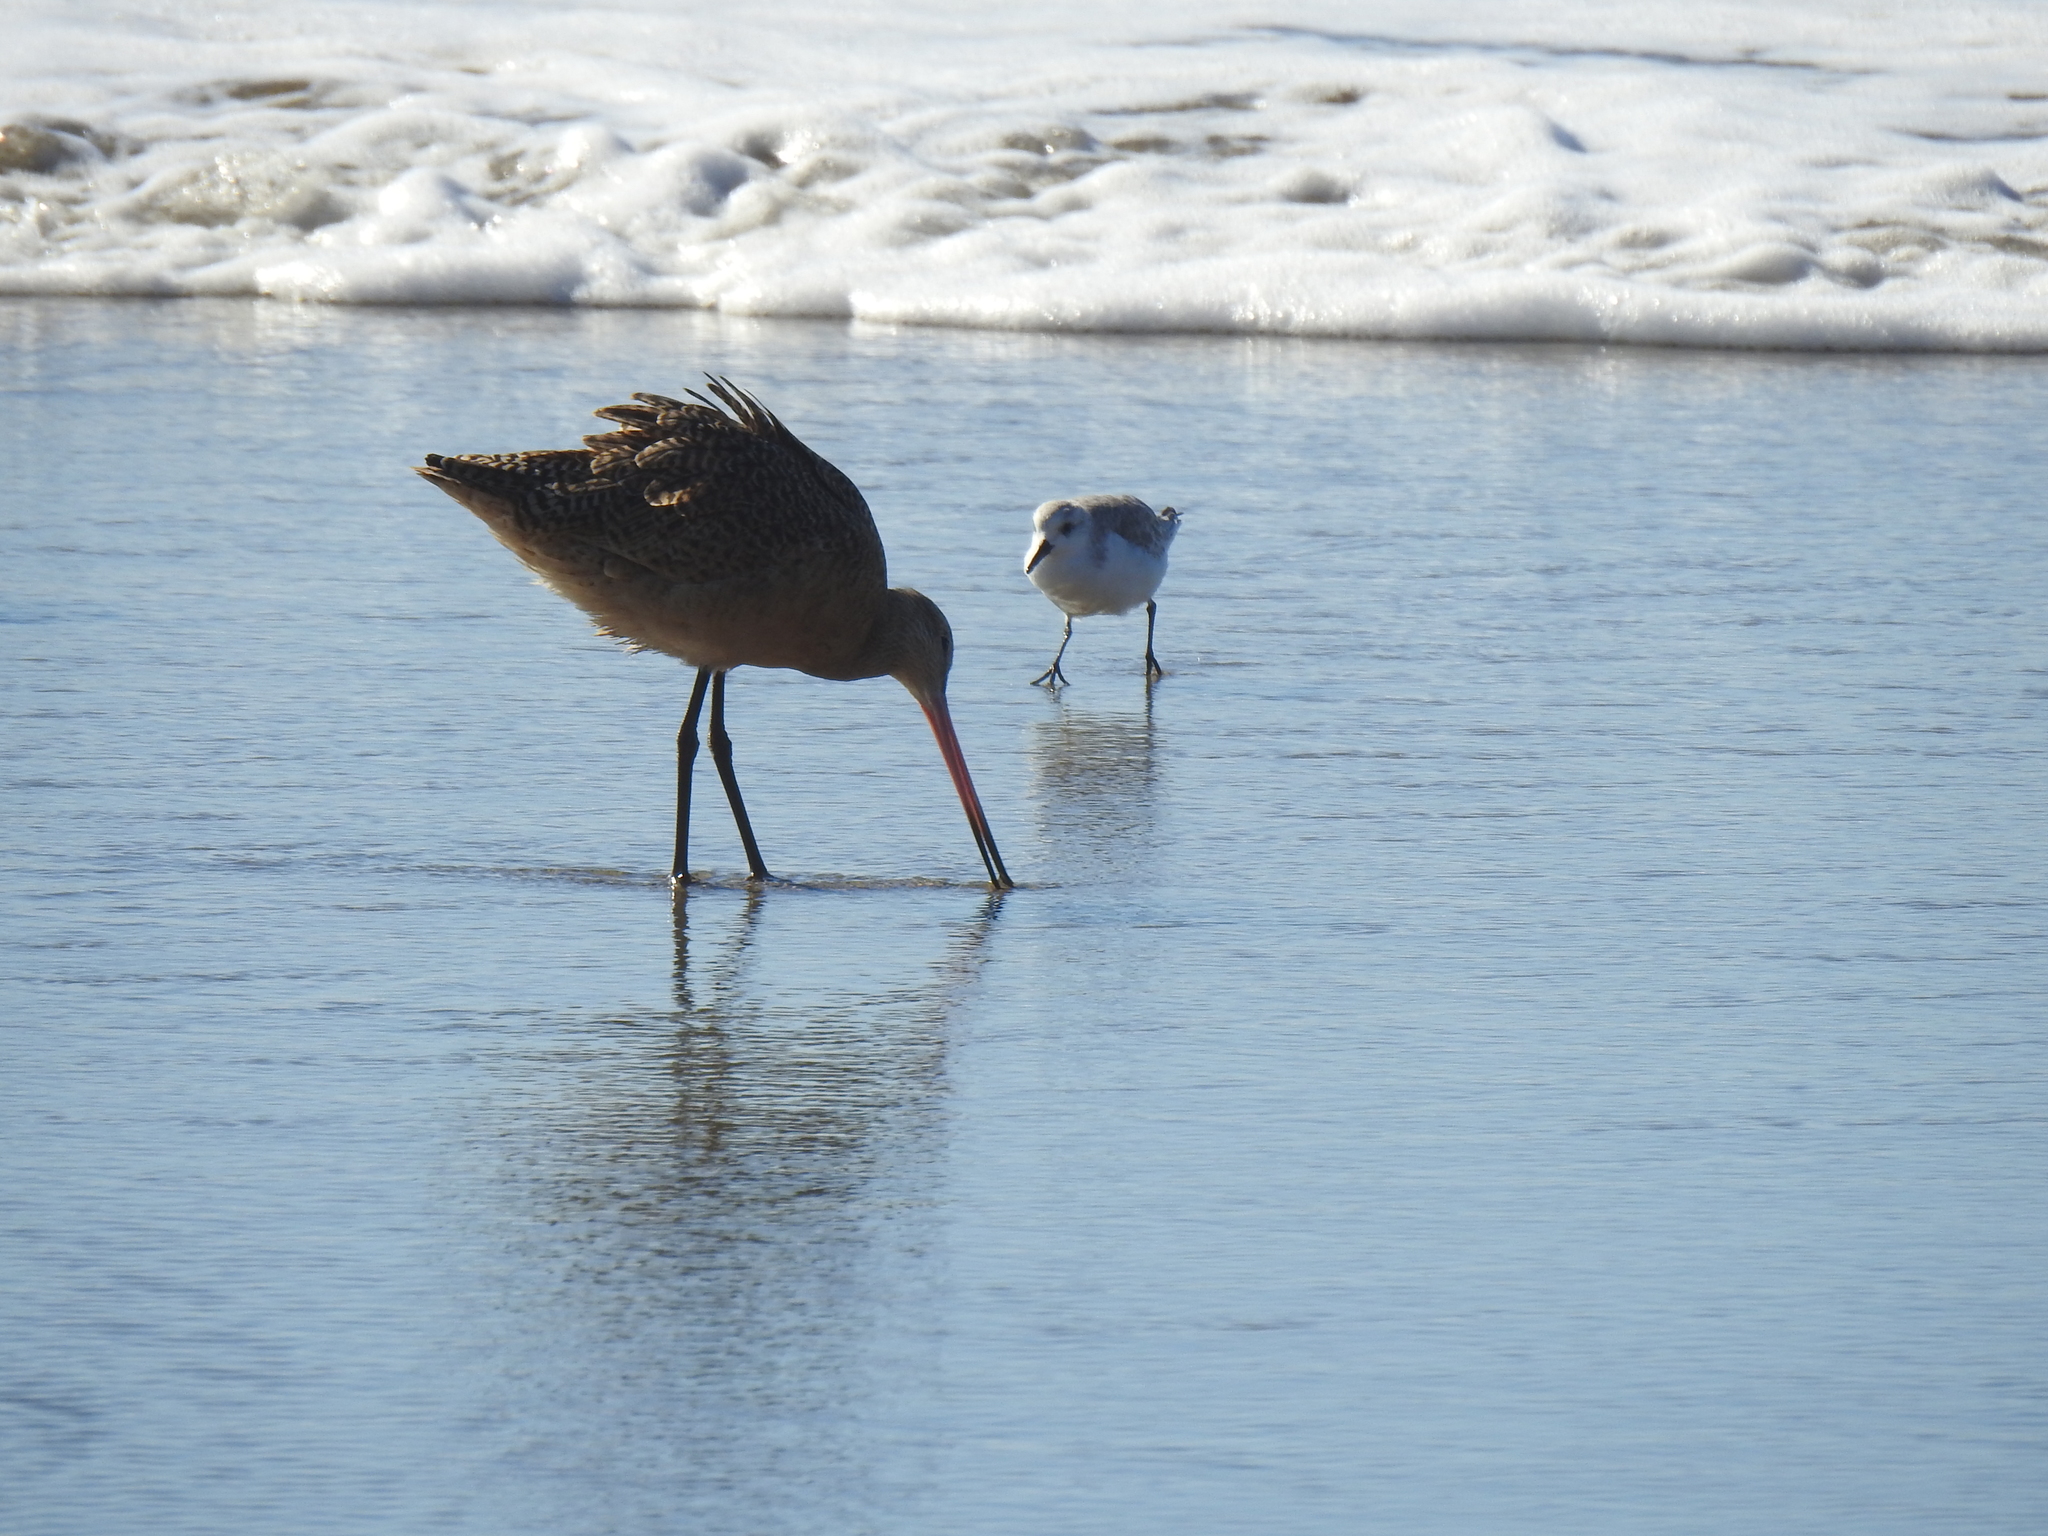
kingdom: Animalia
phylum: Chordata
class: Aves
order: Charadriiformes
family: Scolopacidae
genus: Limosa
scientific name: Limosa fedoa
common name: Marbled godwit
